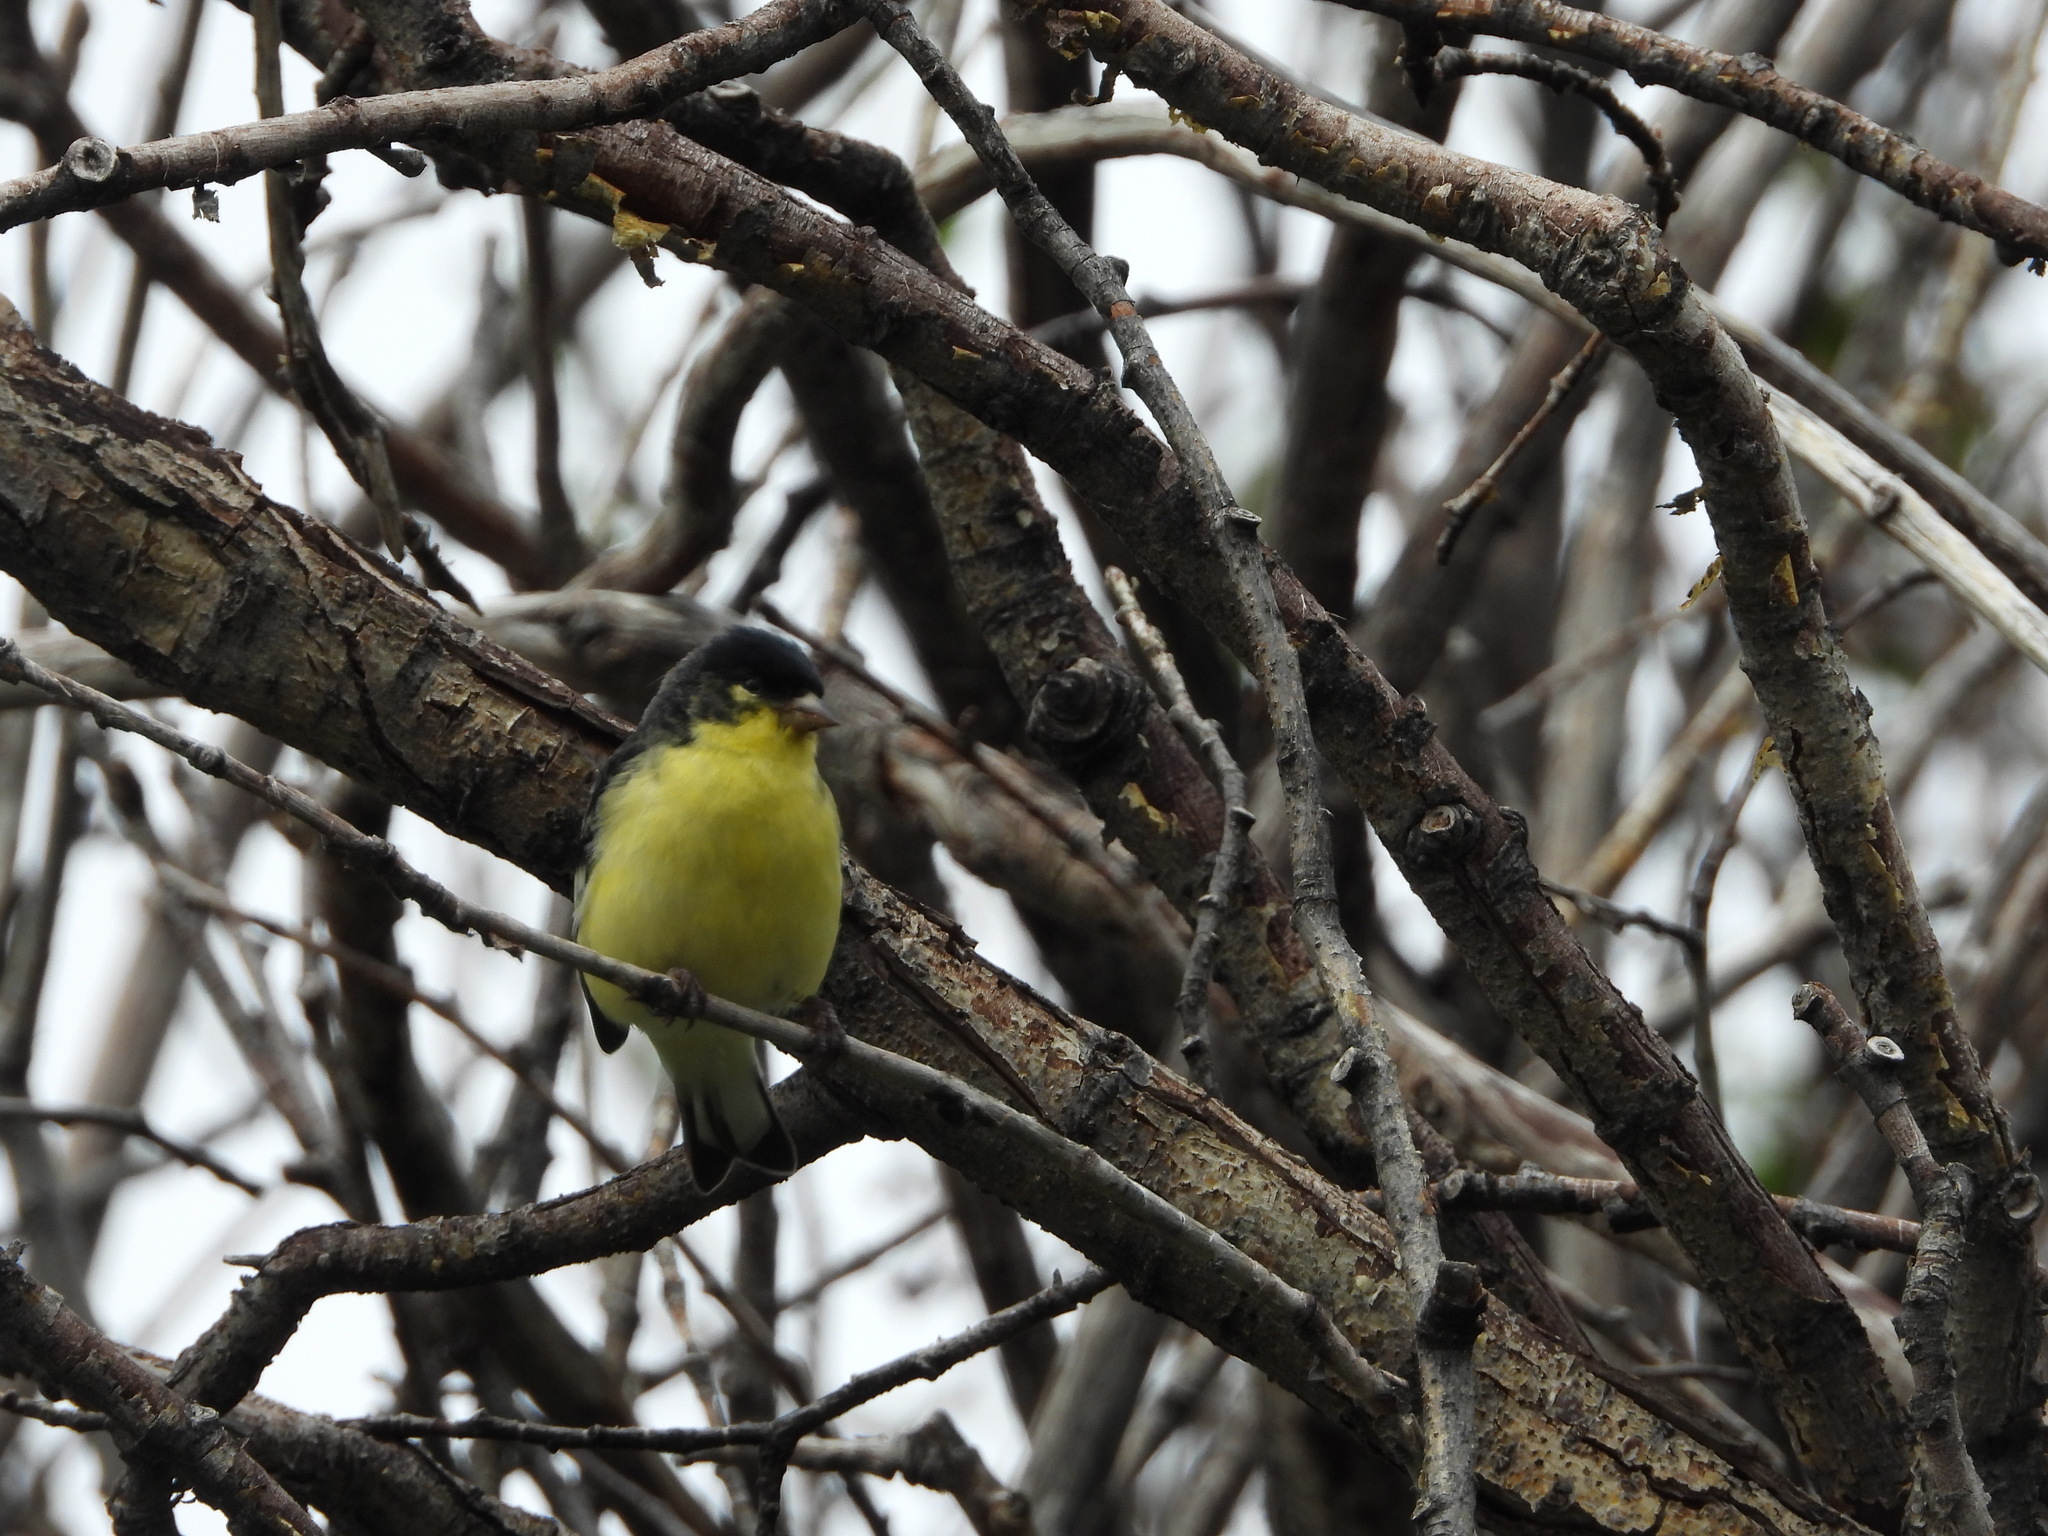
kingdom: Animalia
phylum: Chordata
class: Aves
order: Passeriformes
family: Fringillidae
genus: Spinus
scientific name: Spinus psaltria
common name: Lesser goldfinch
